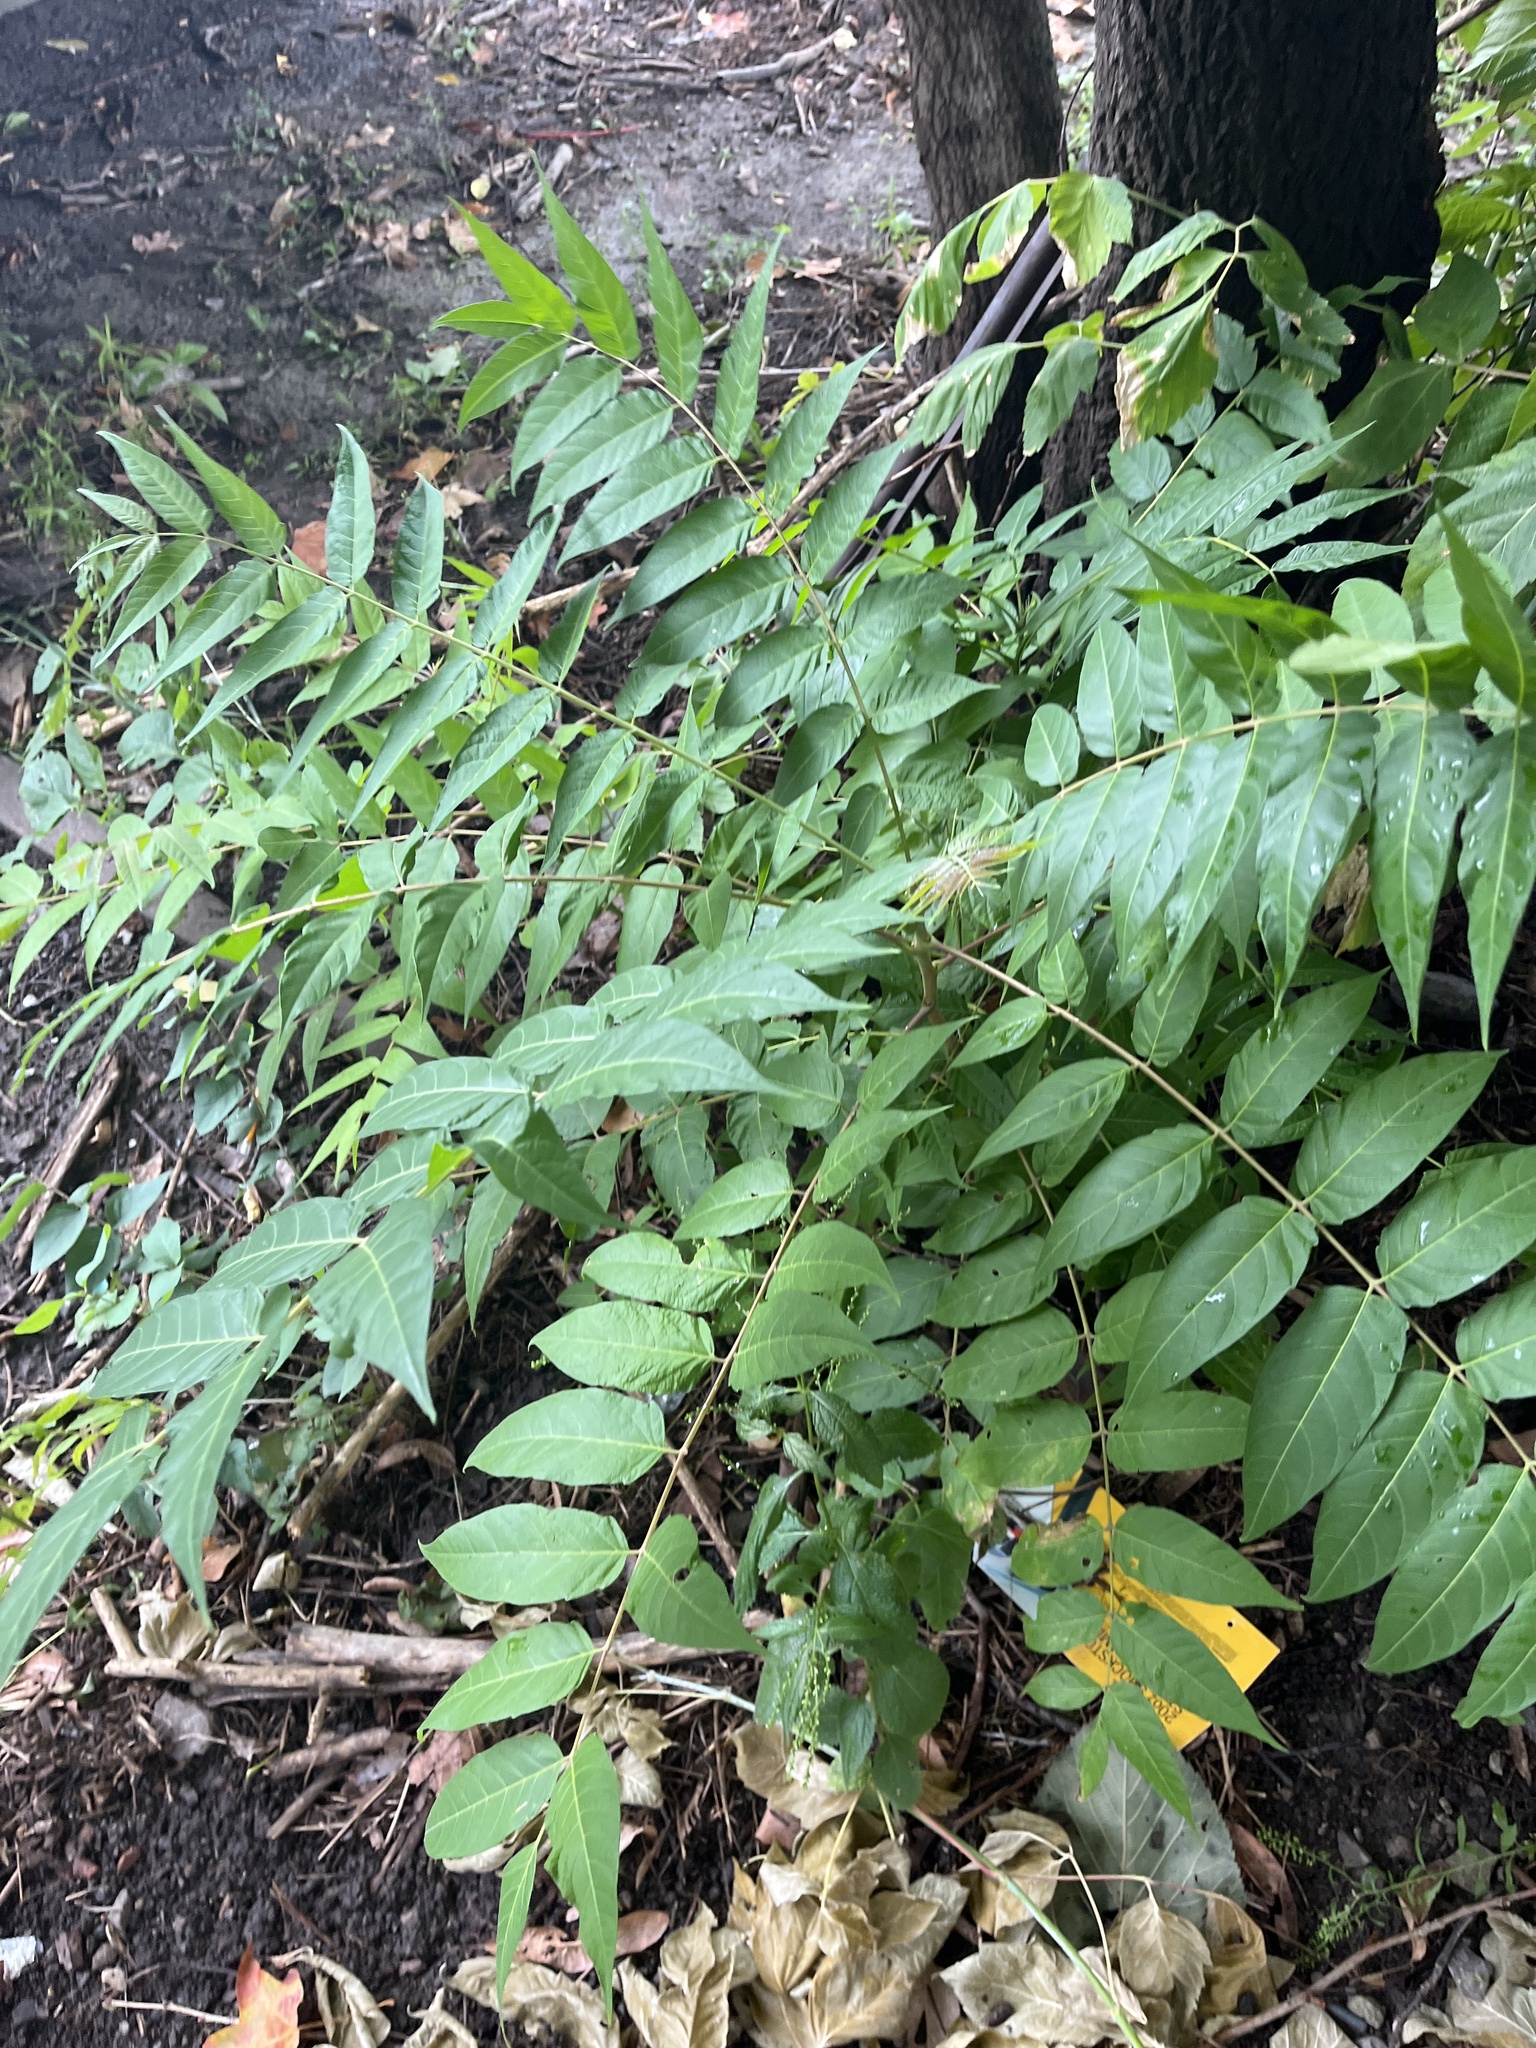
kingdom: Plantae
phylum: Tracheophyta
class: Magnoliopsida
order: Sapindales
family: Simaroubaceae
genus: Ailanthus
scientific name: Ailanthus altissima
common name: Tree-of-heaven
